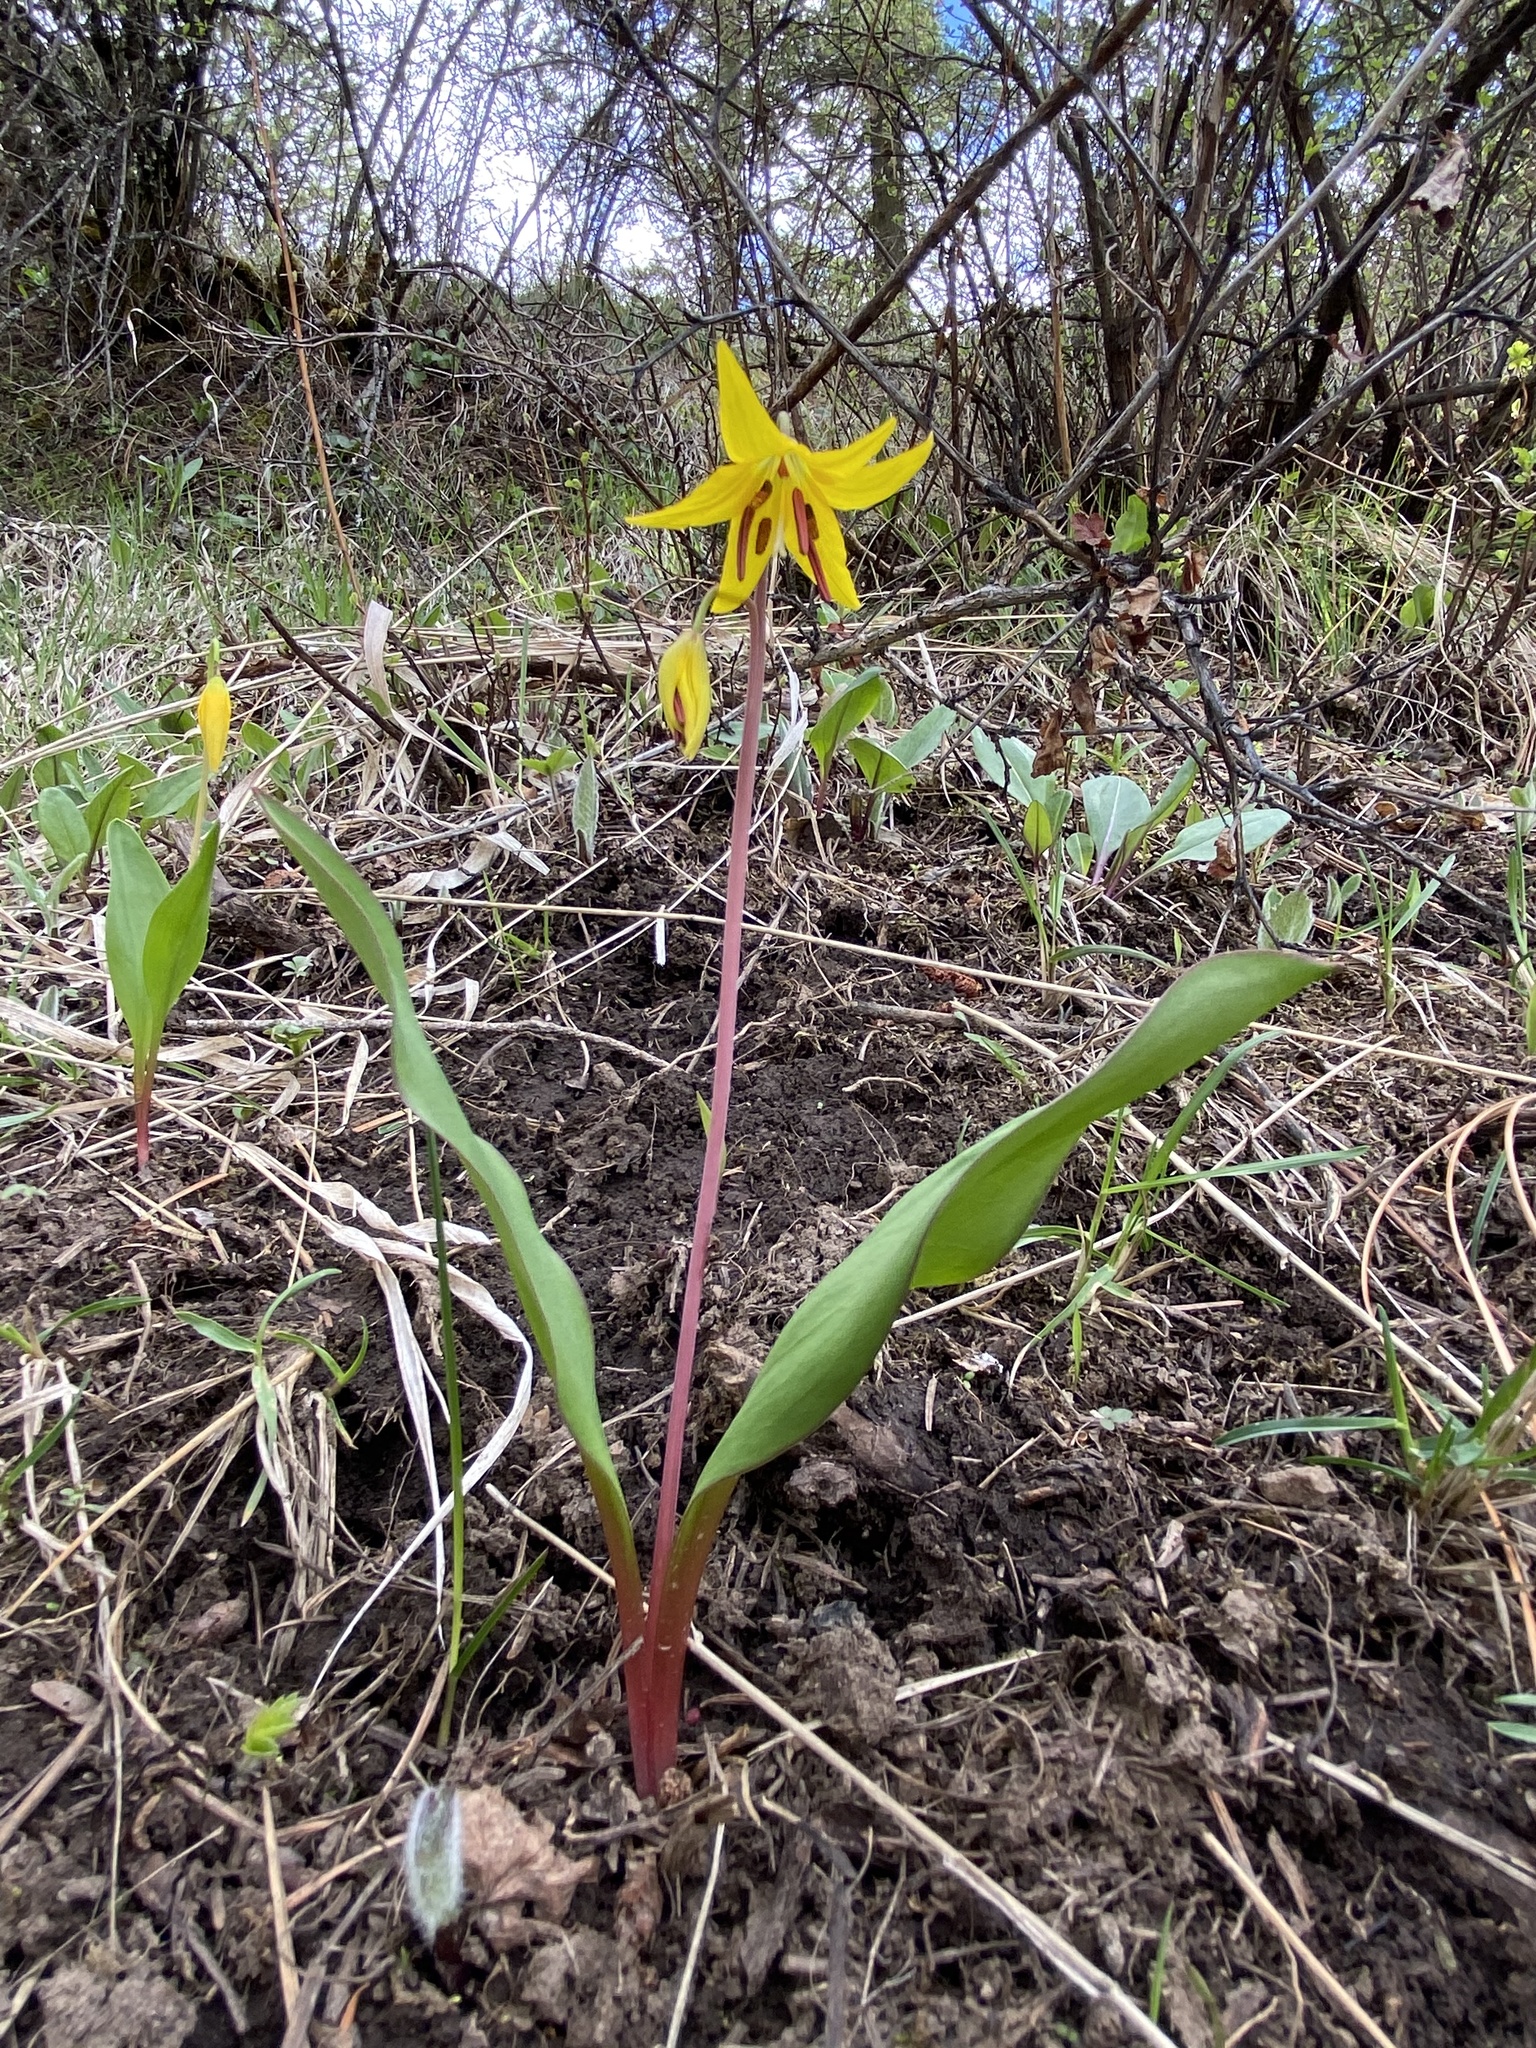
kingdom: Plantae
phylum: Tracheophyta
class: Liliopsida
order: Liliales
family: Liliaceae
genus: Erythronium
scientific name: Erythronium grandiflorum
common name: Avalanche-lily
